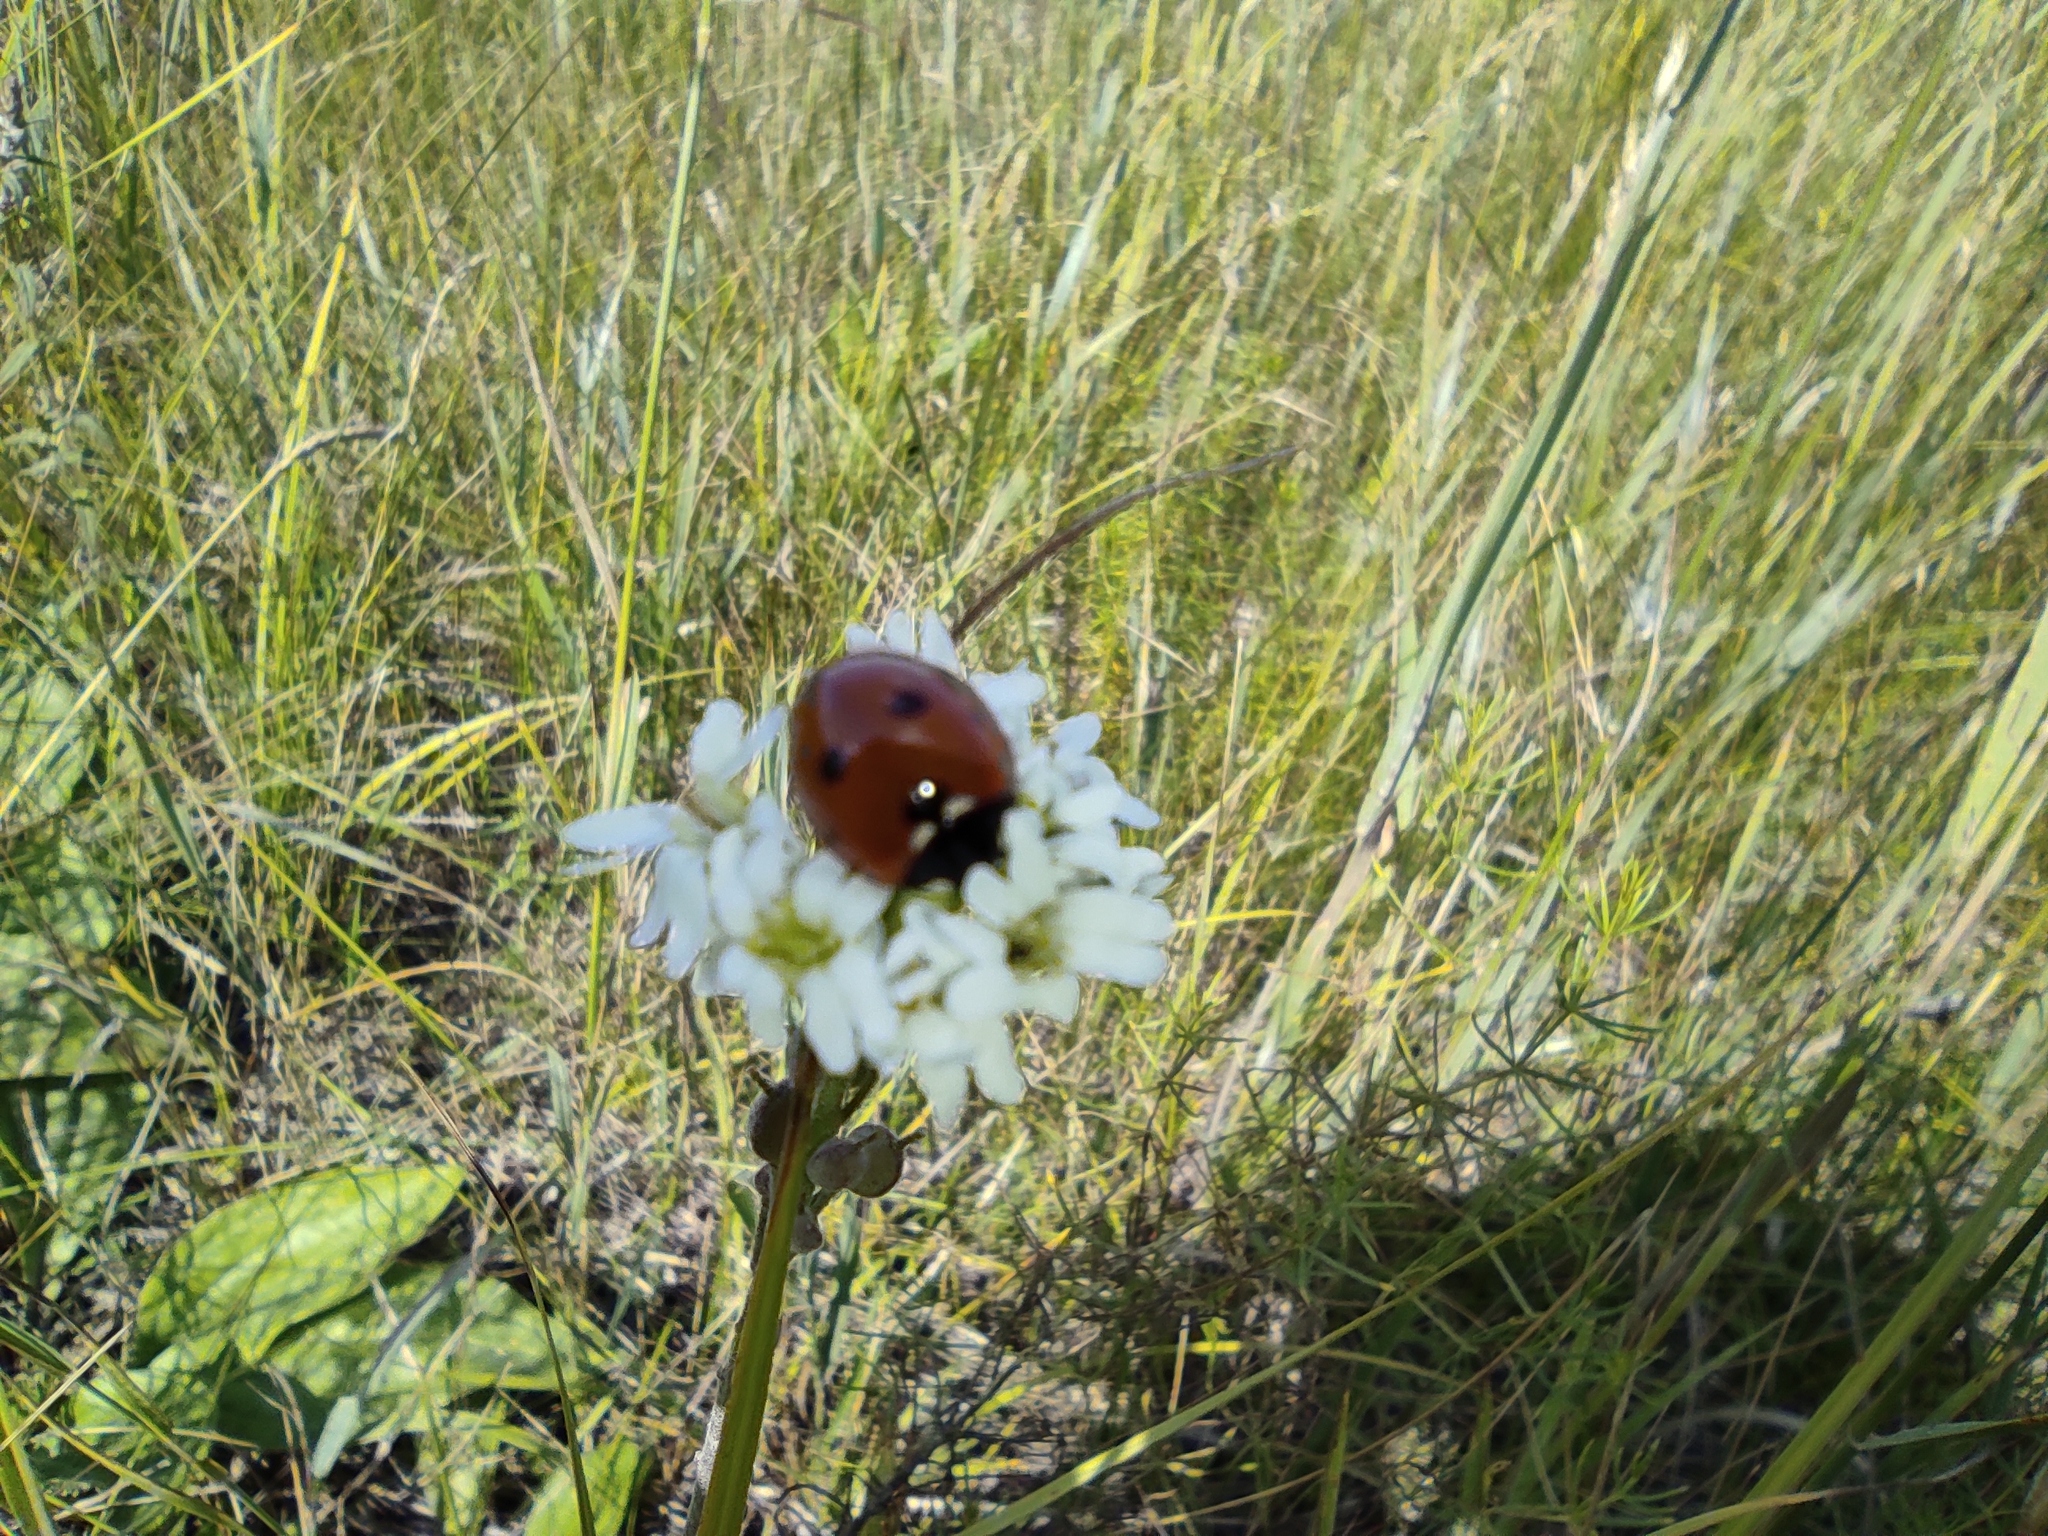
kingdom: Plantae
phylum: Tracheophyta
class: Magnoliopsida
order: Brassicales
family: Brassicaceae
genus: Berteroa
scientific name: Berteroa incana
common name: Hoary alison
